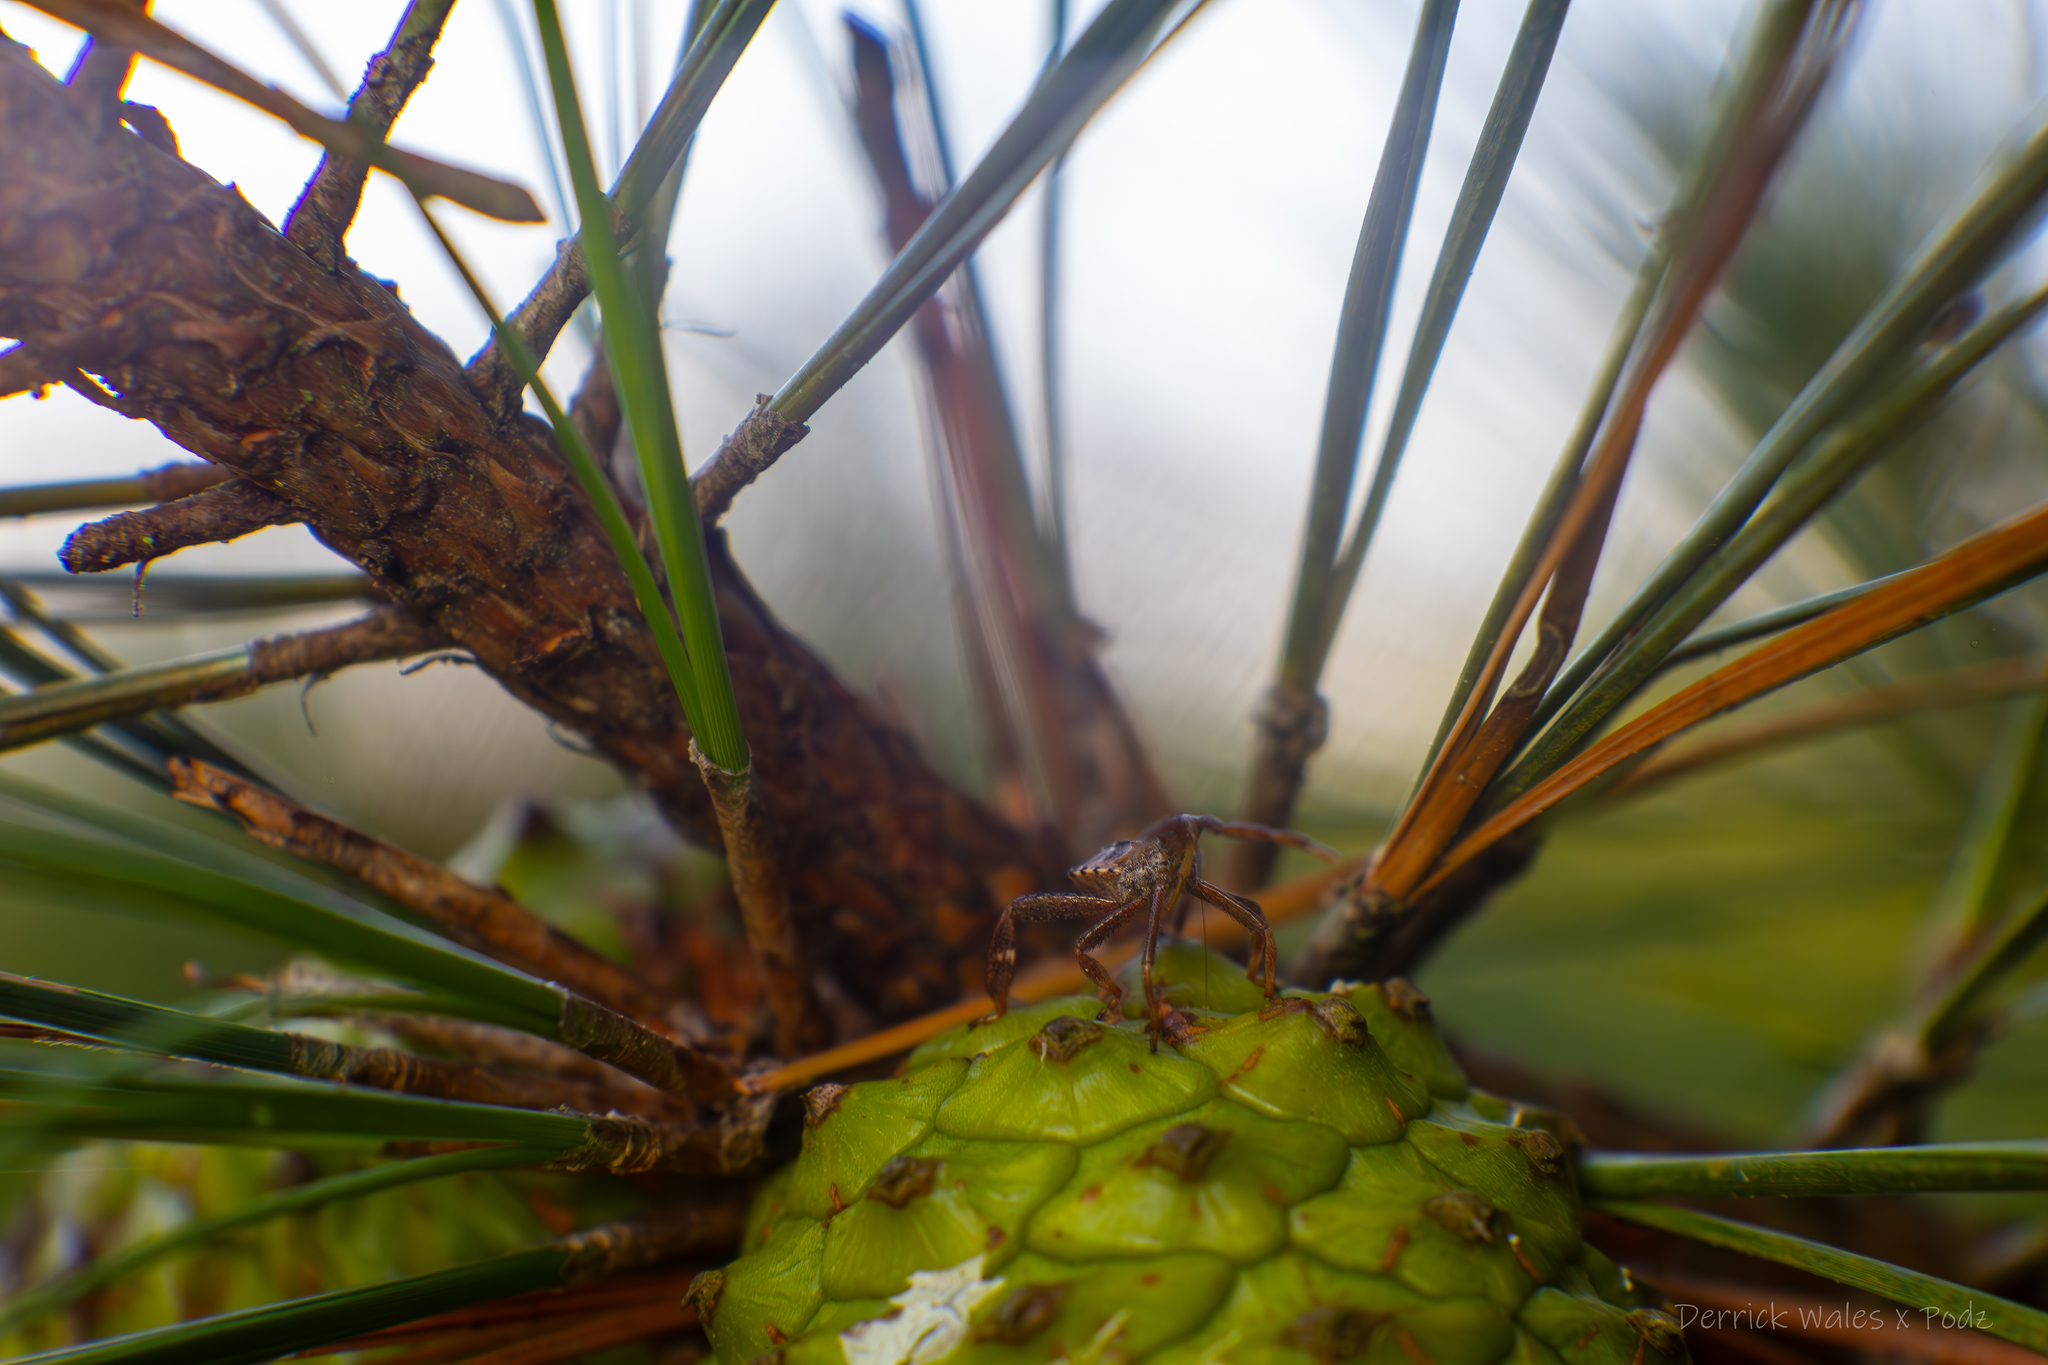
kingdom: Plantae
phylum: Tracheophyta
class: Pinopsida
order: Pinales
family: Pinaceae
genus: Pinus
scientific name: Pinus taeda
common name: Loblolly pine
